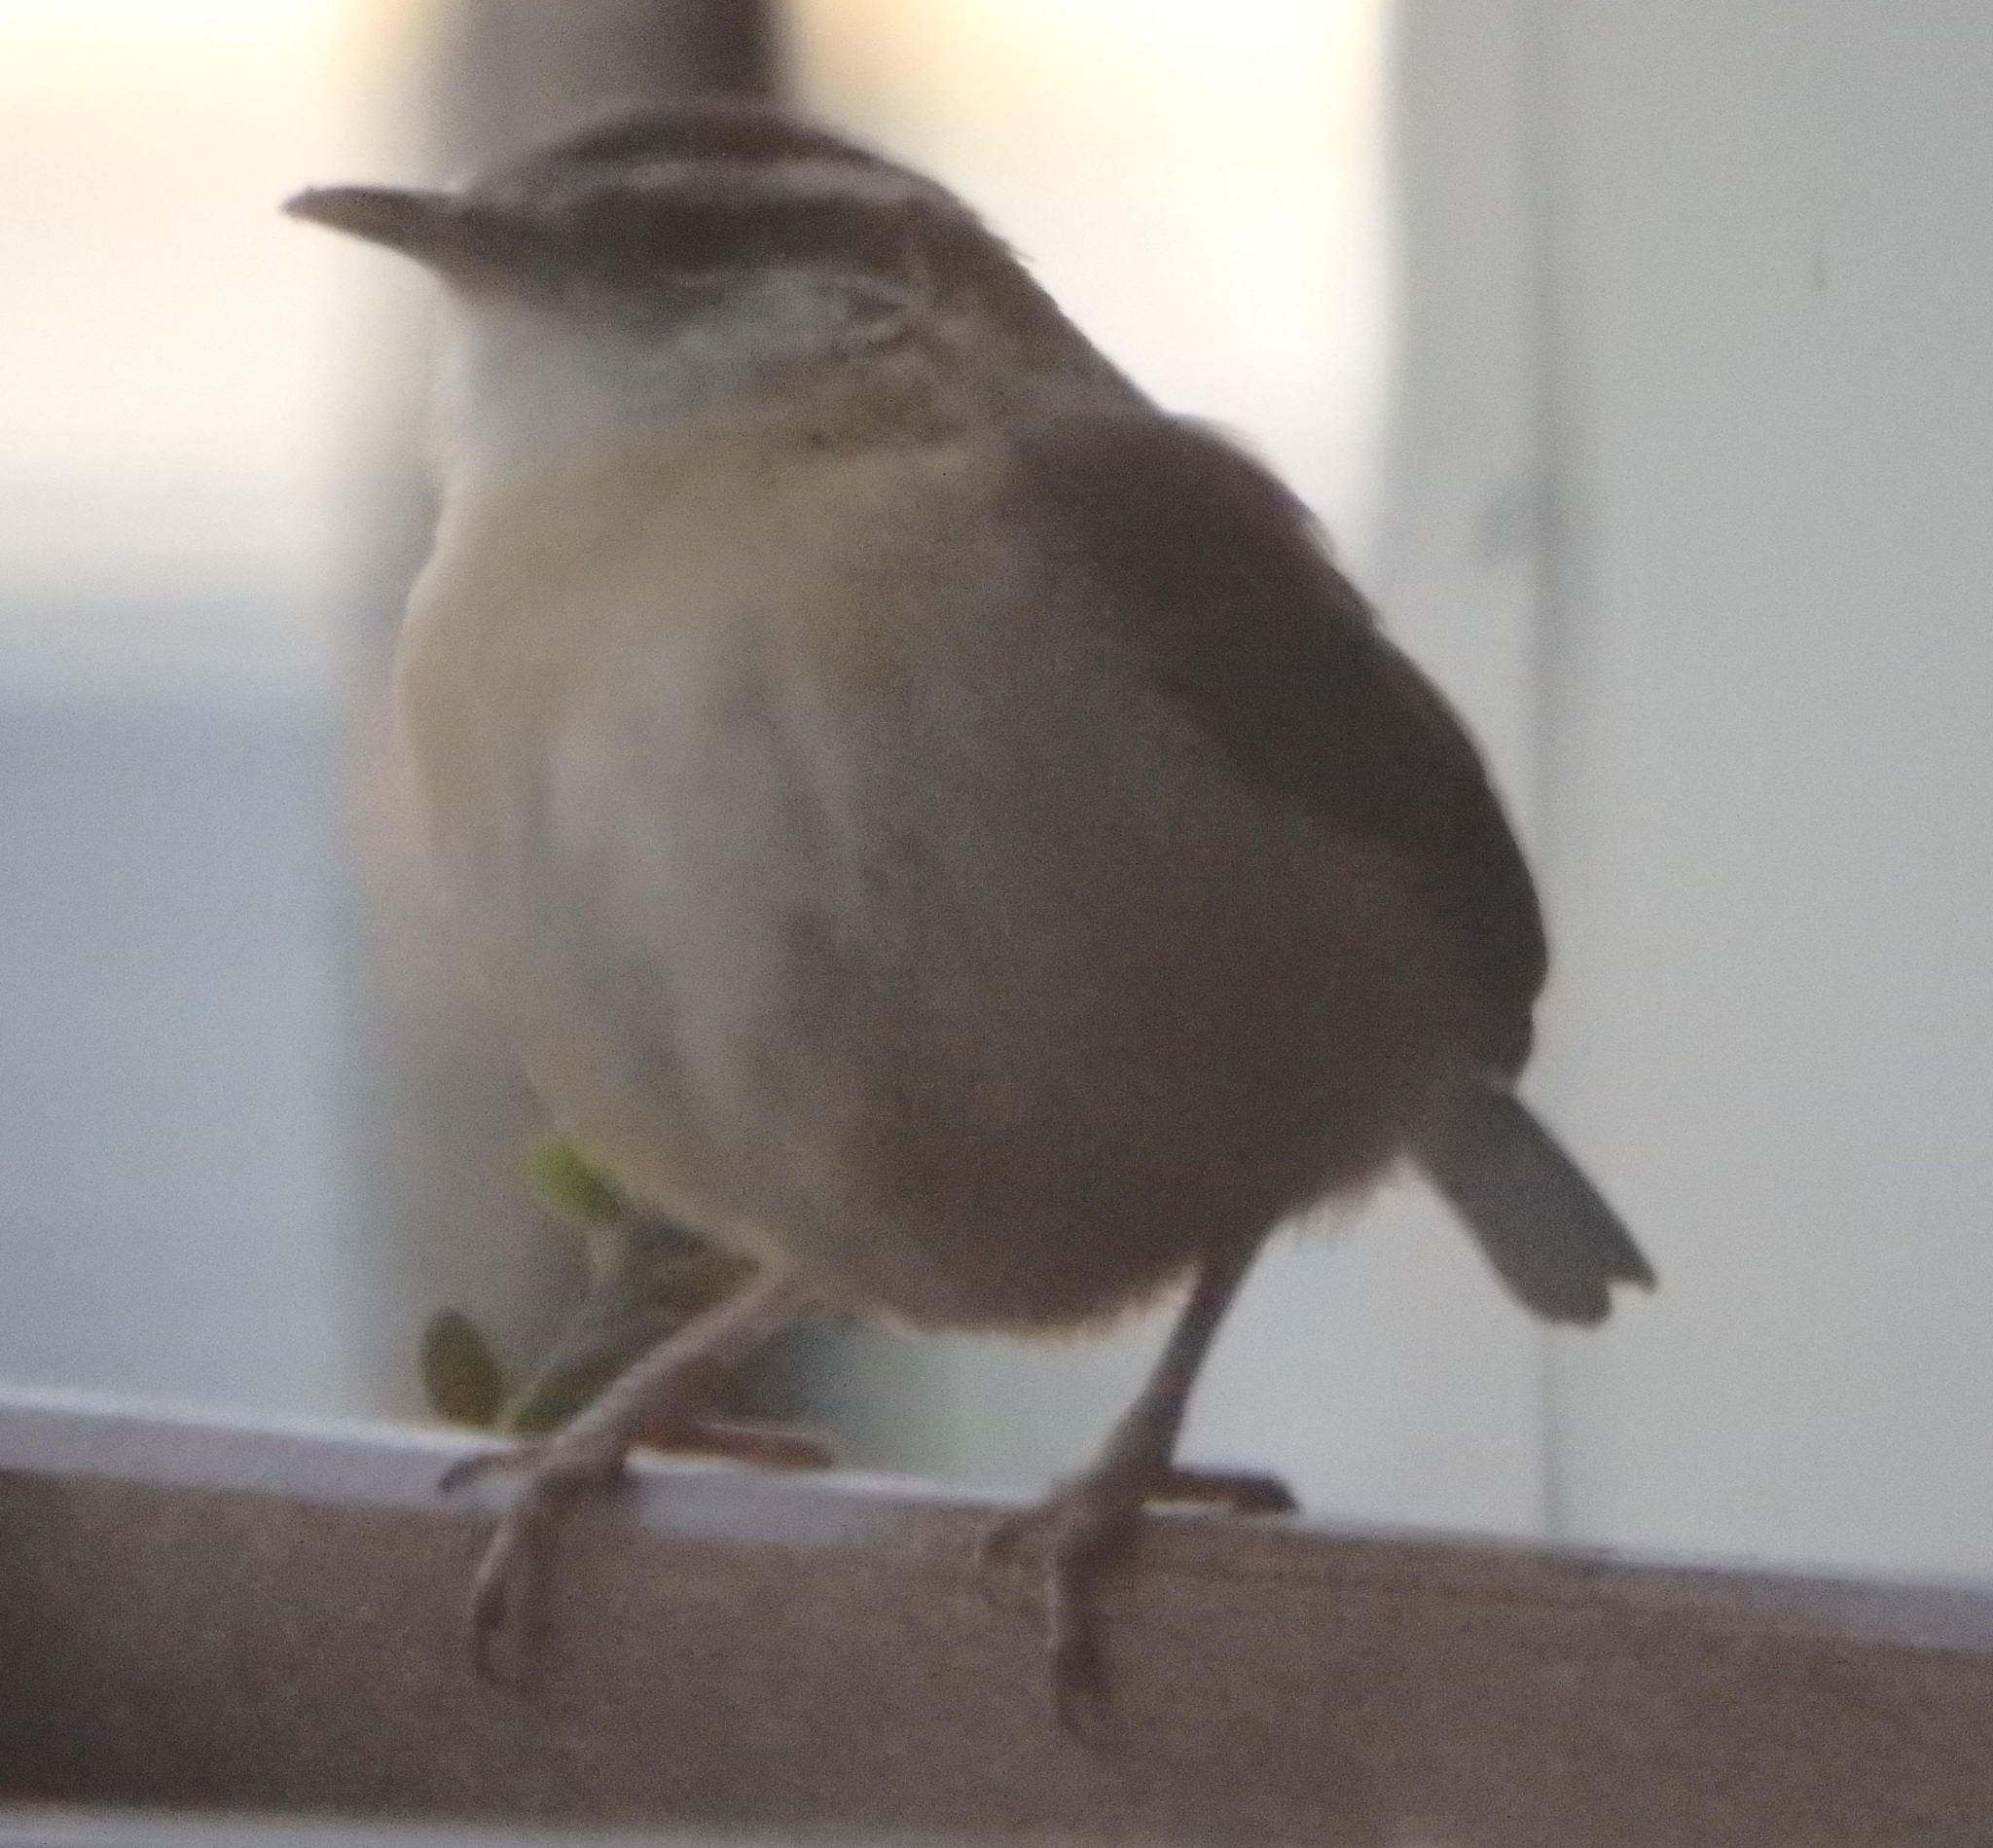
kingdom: Animalia
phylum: Chordata
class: Aves
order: Passeriformes
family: Troglodytidae
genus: Thryothorus
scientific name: Thryothorus ludovicianus
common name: Carolina wren
